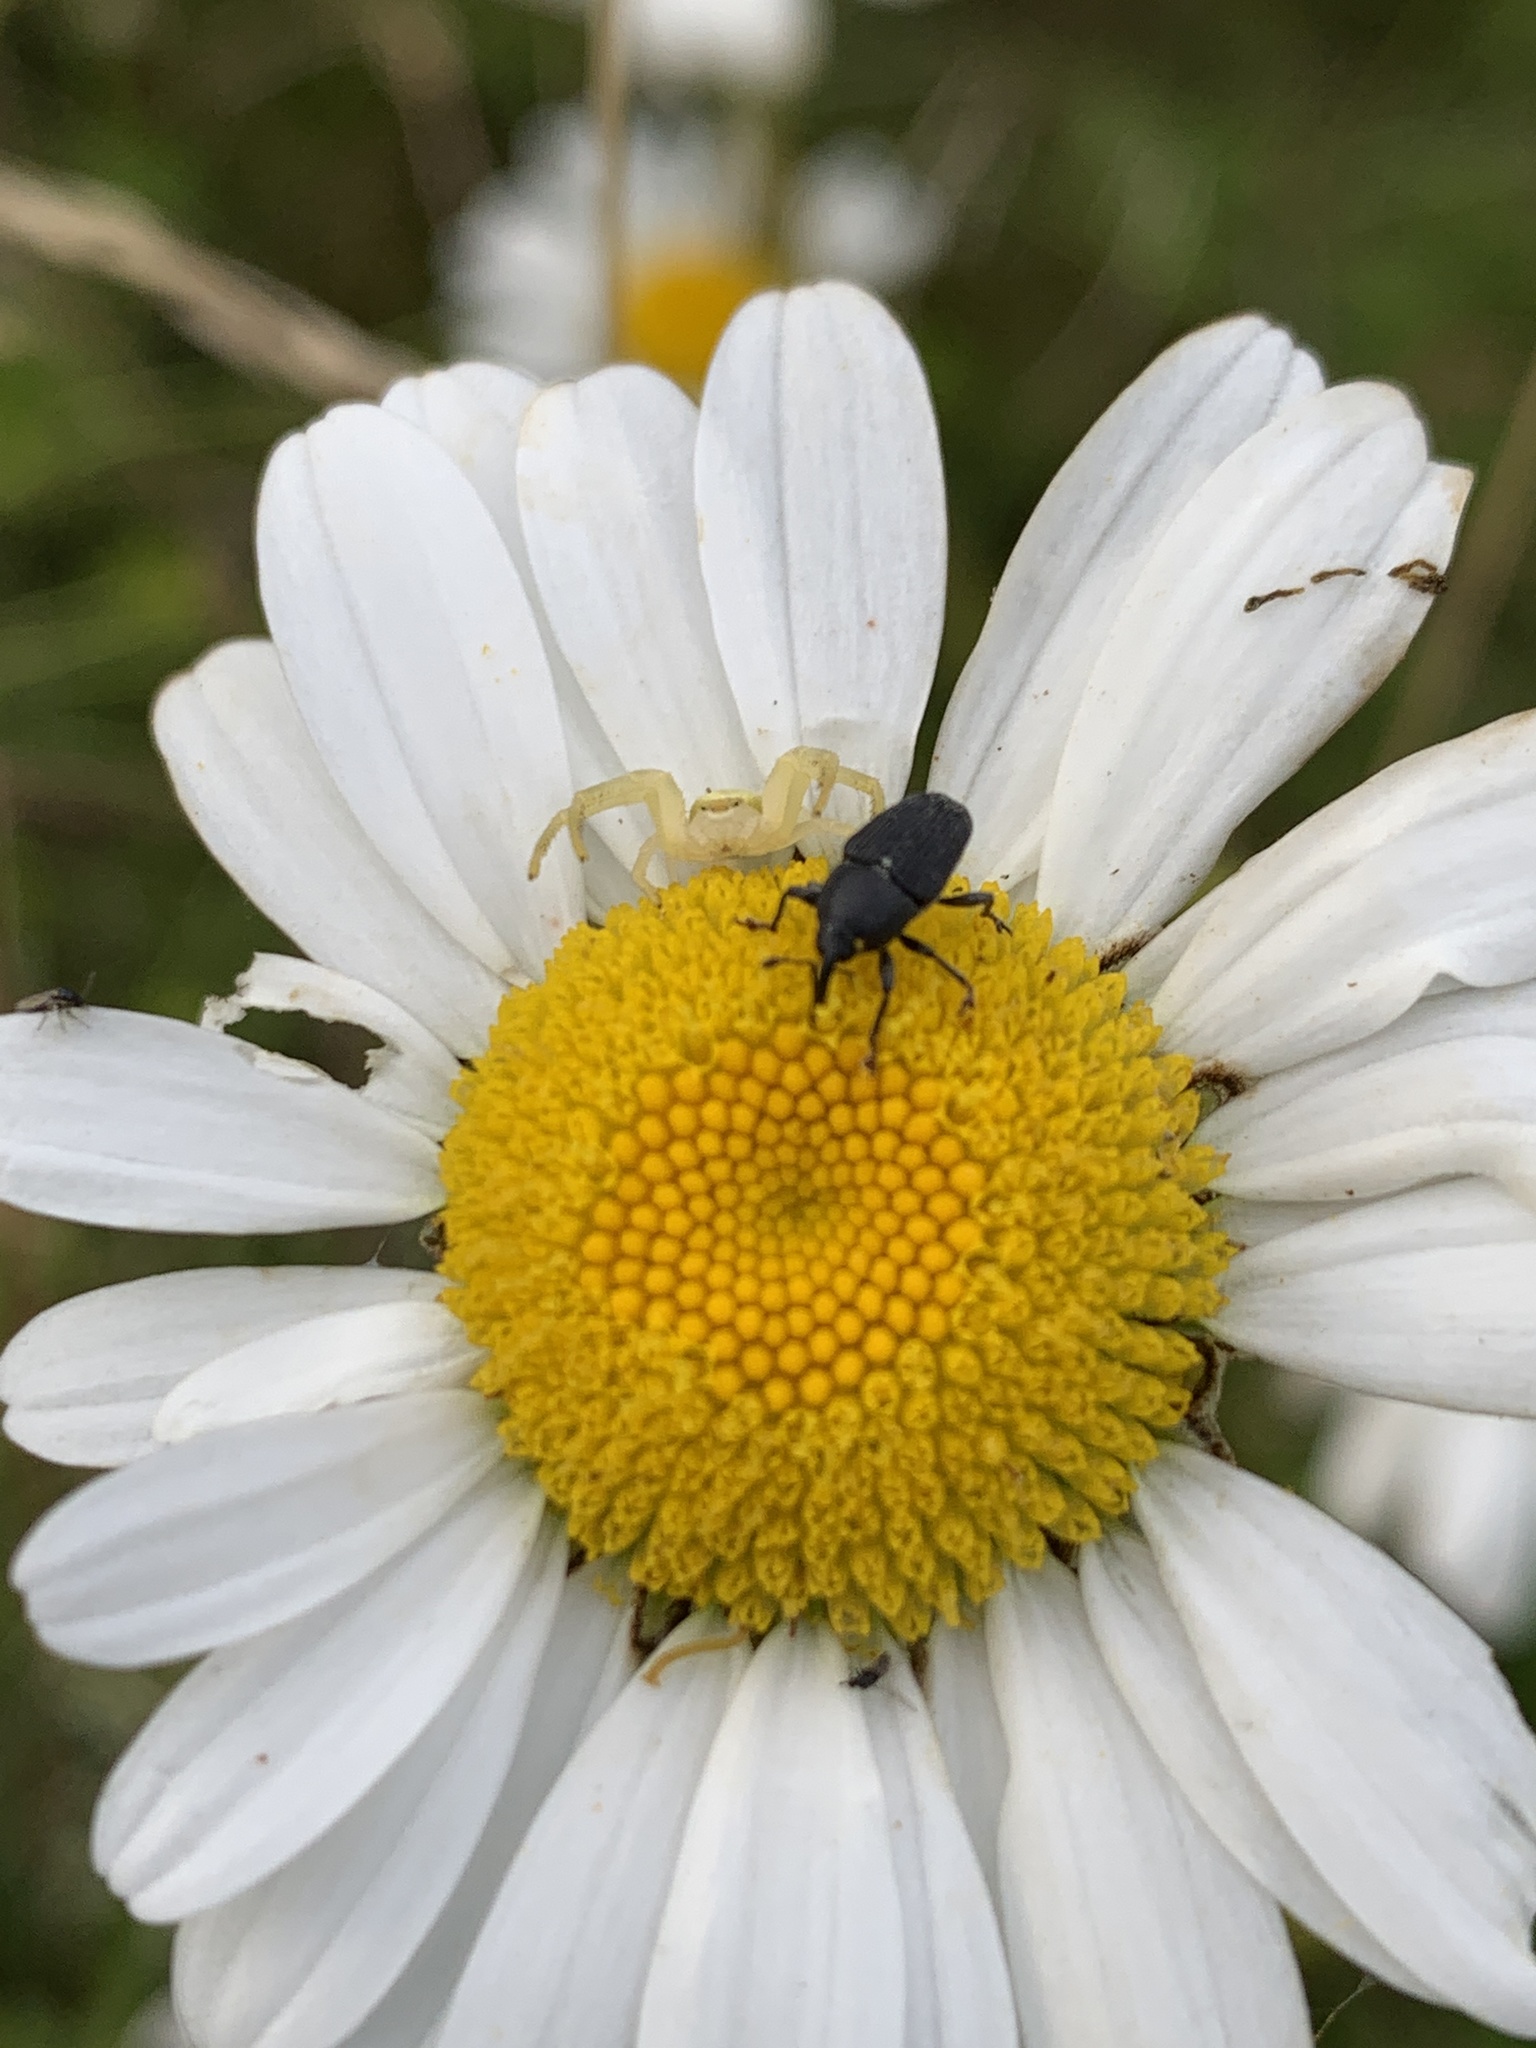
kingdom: Animalia
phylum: Arthropoda
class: Insecta
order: Coleoptera
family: Curculionidae
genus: Odontocorynus
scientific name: Odontocorynus umbellae
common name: Daisy flower weevil
